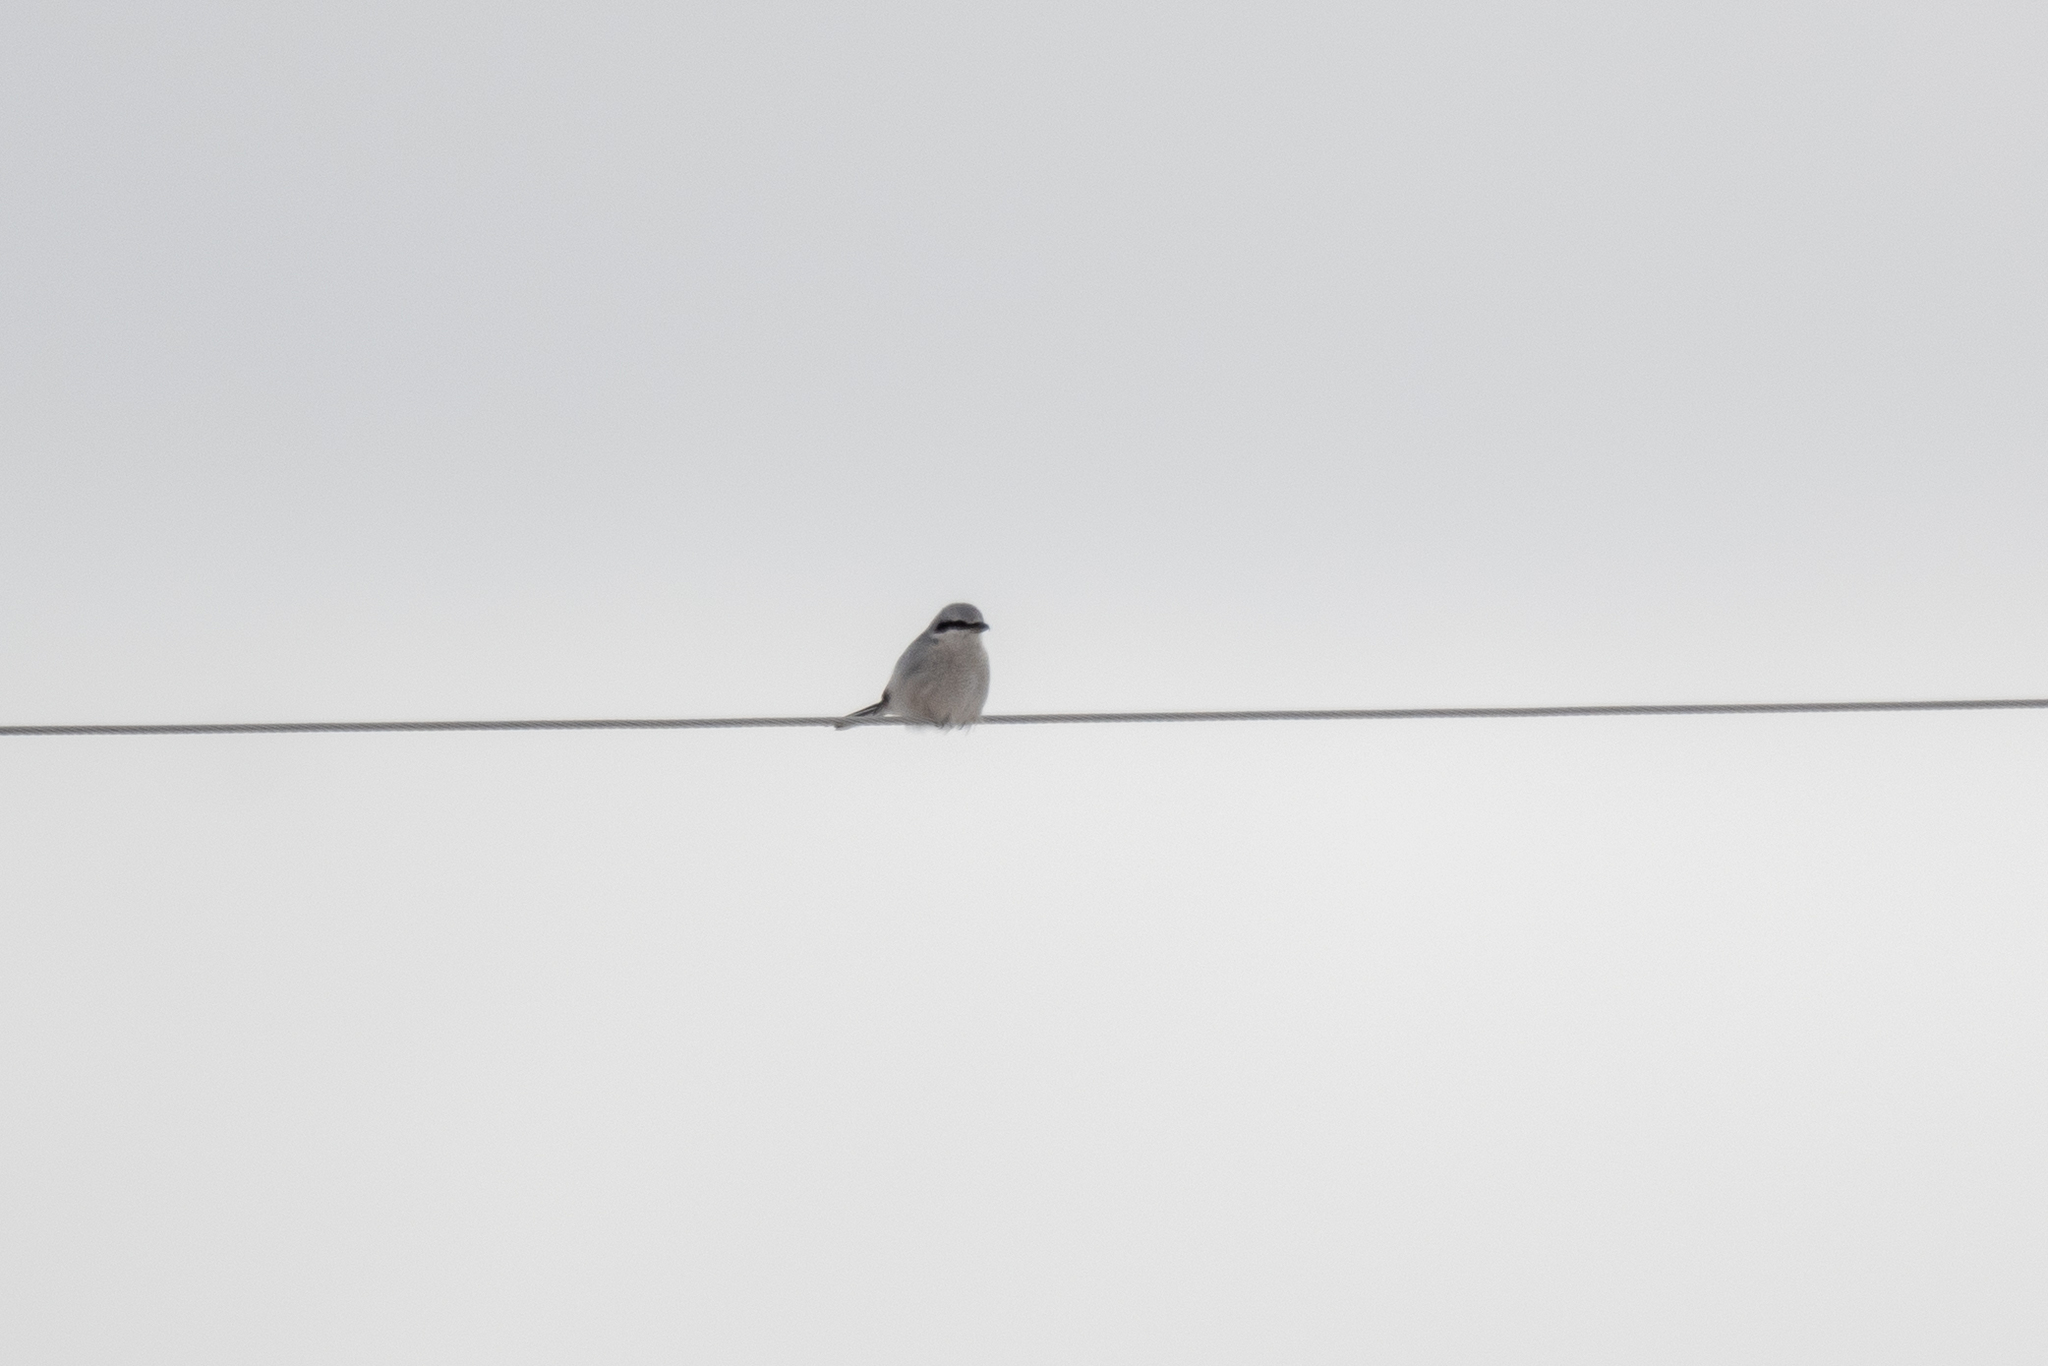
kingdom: Animalia
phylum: Chordata
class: Aves
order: Passeriformes
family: Laniidae
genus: Lanius
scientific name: Lanius borealis
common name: Northern shrike
